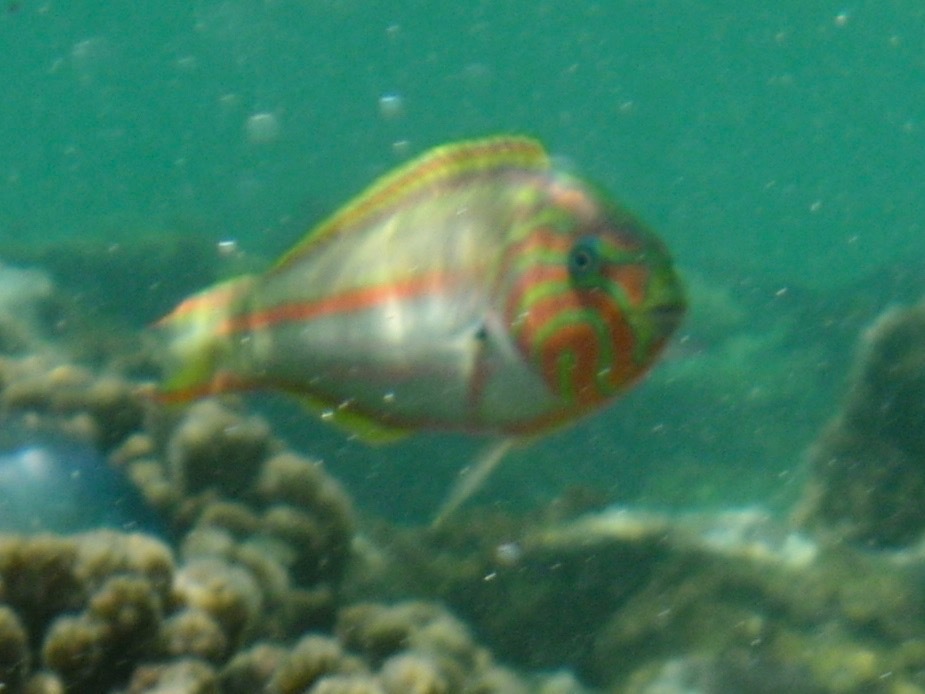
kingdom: Animalia
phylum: Chordata
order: Perciformes
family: Labridae
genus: Thalassoma
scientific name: Thalassoma rueppellii
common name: Klunzinger's wrasse
